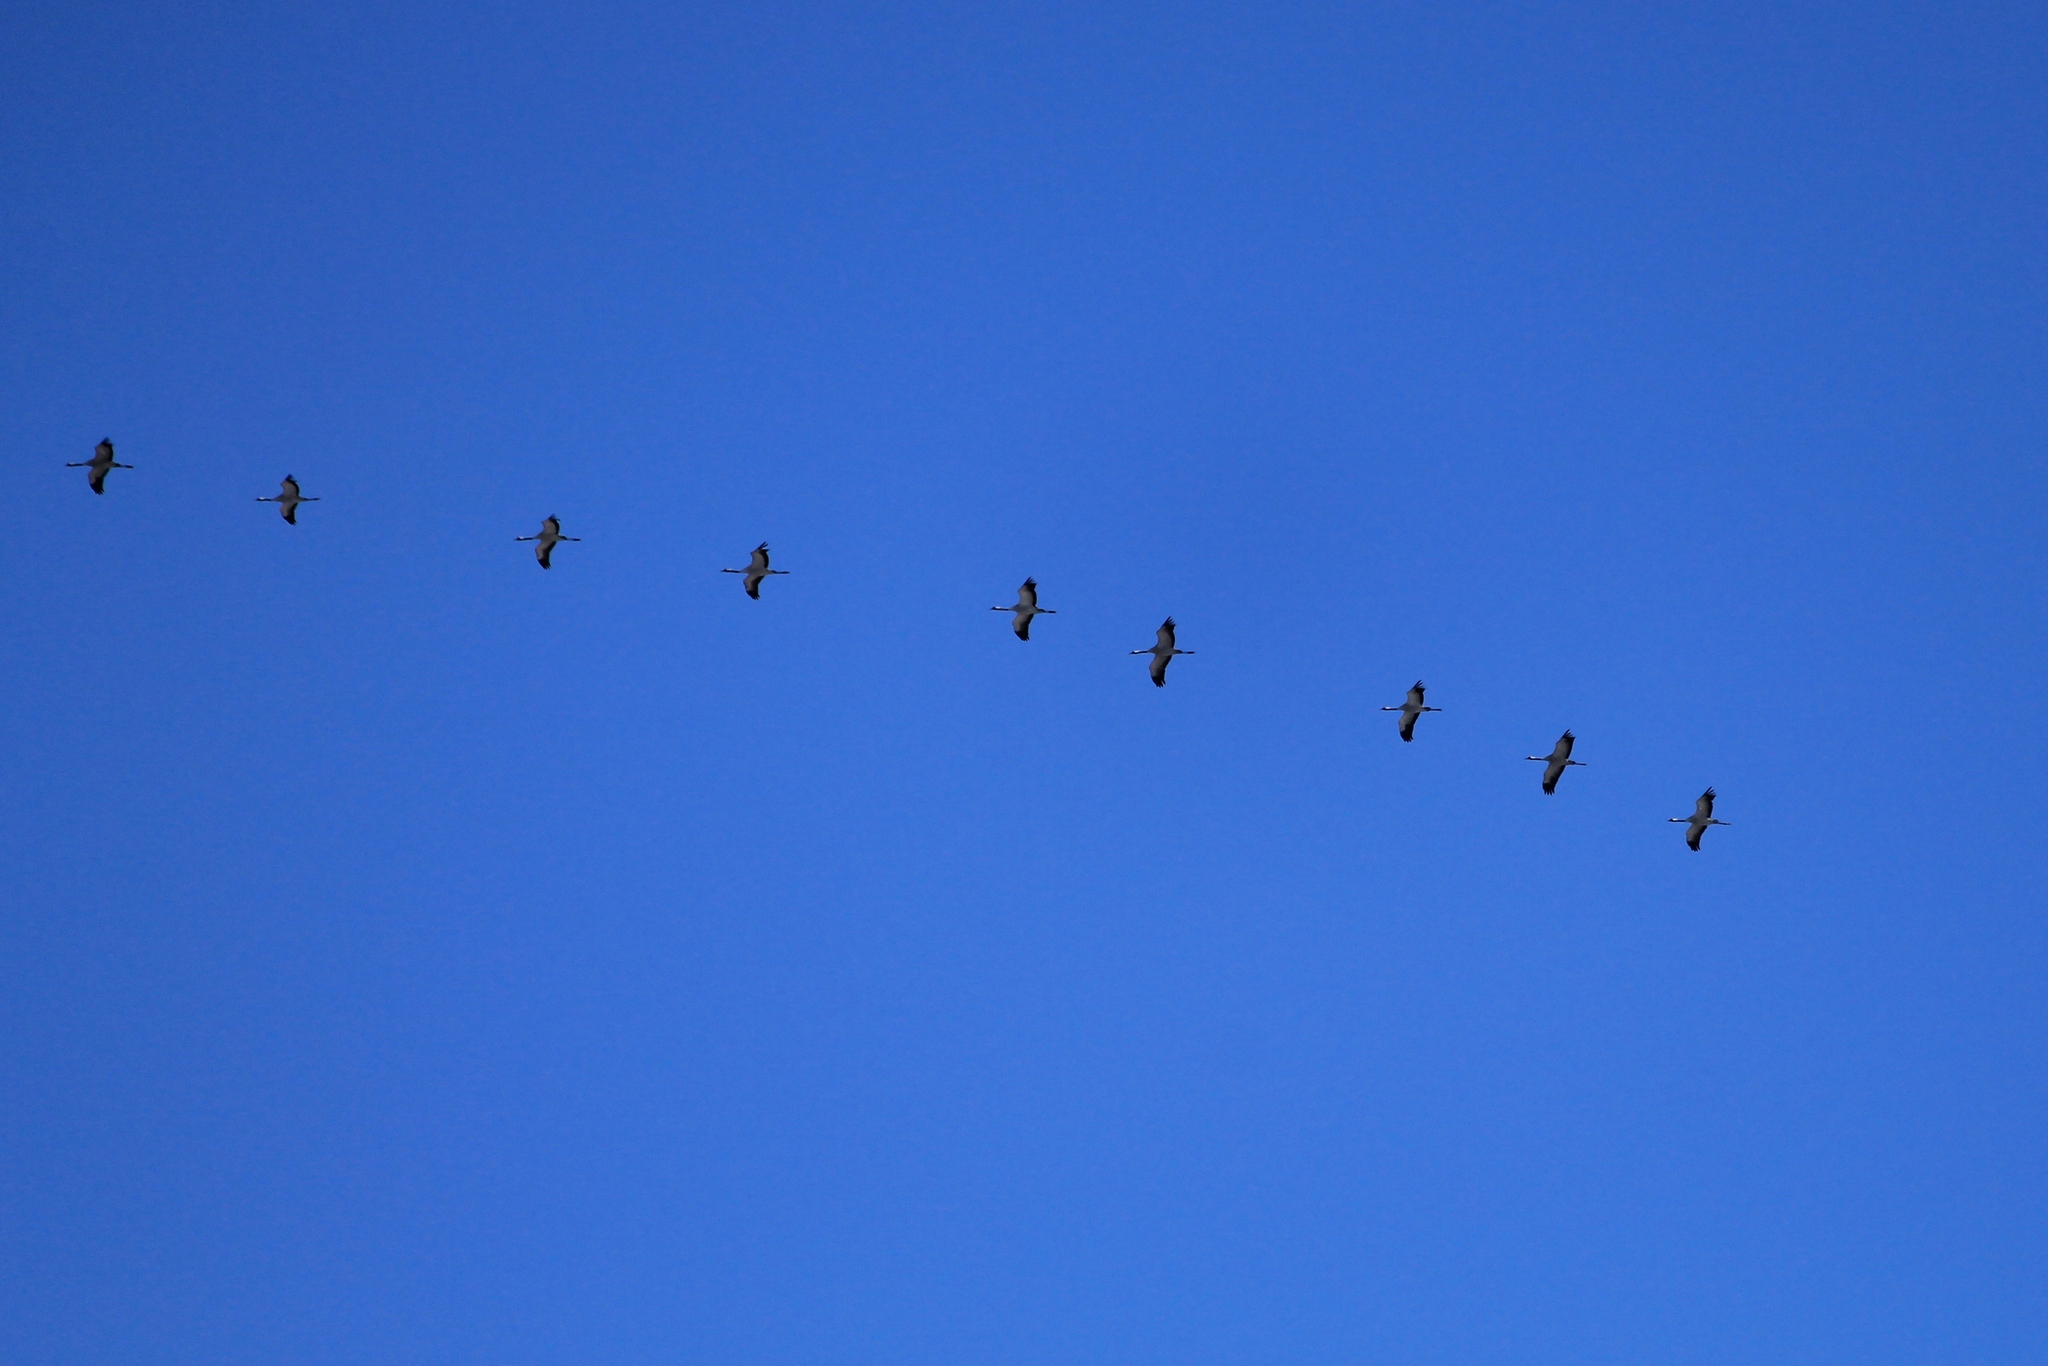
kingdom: Animalia
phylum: Chordata
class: Aves
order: Gruiformes
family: Gruidae
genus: Grus
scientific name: Grus grus
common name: Common crane
